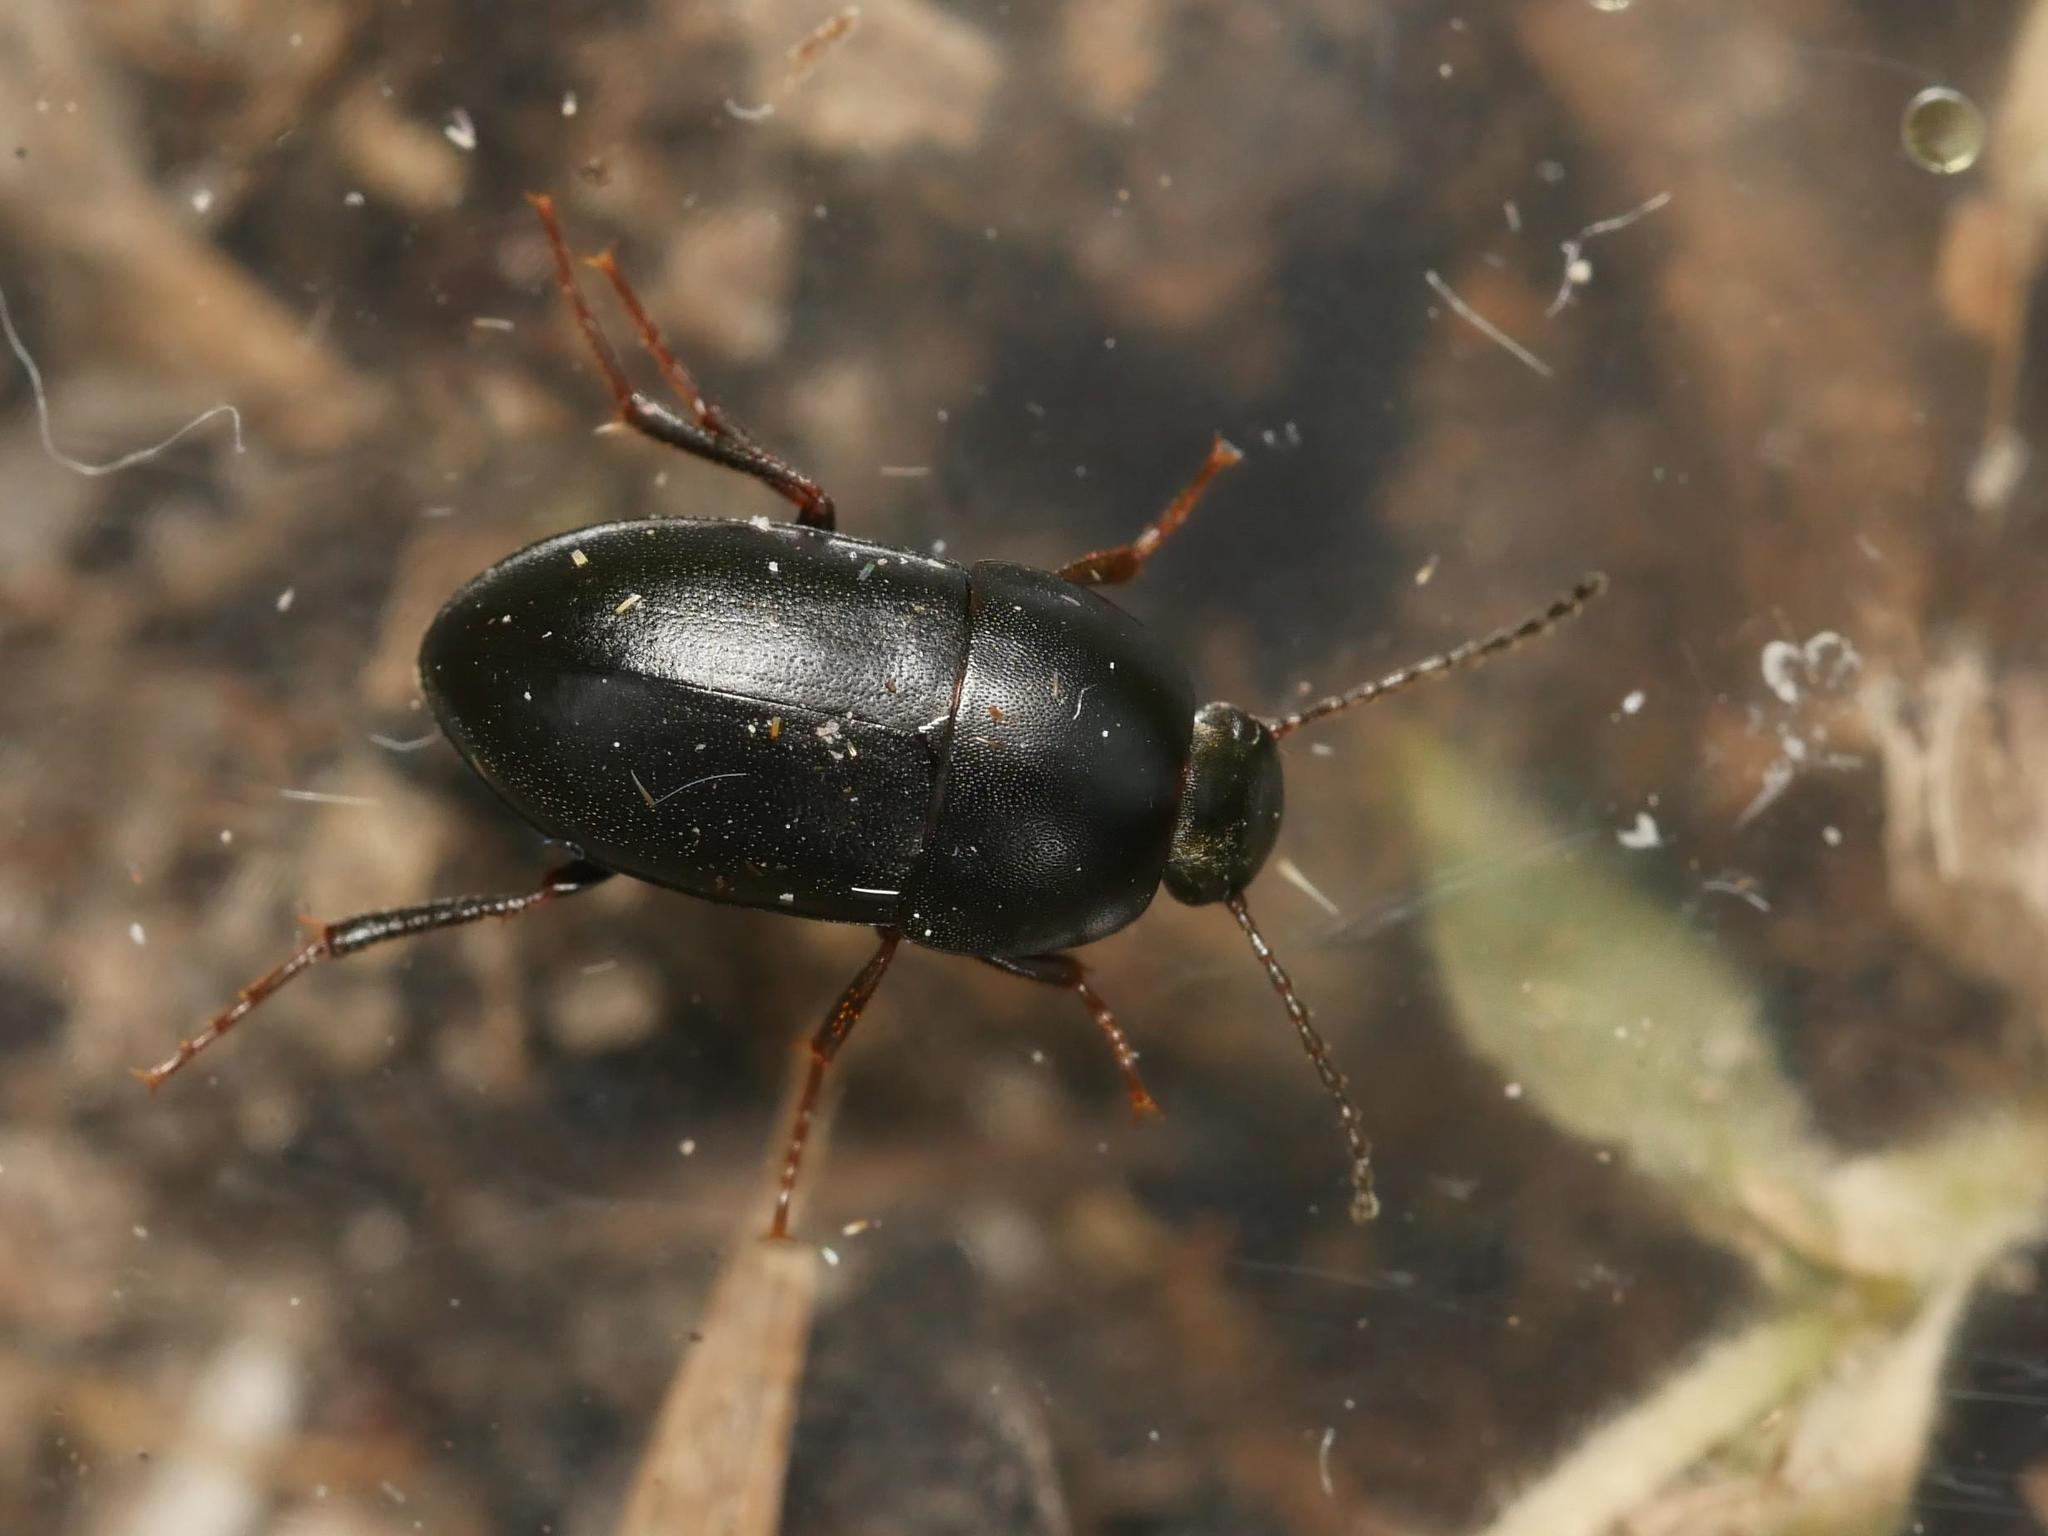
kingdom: Animalia
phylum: Arthropoda
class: Insecta
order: Coleoptera
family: Tenebrionidae
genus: Crypticus
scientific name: Crypticus quisquilius
